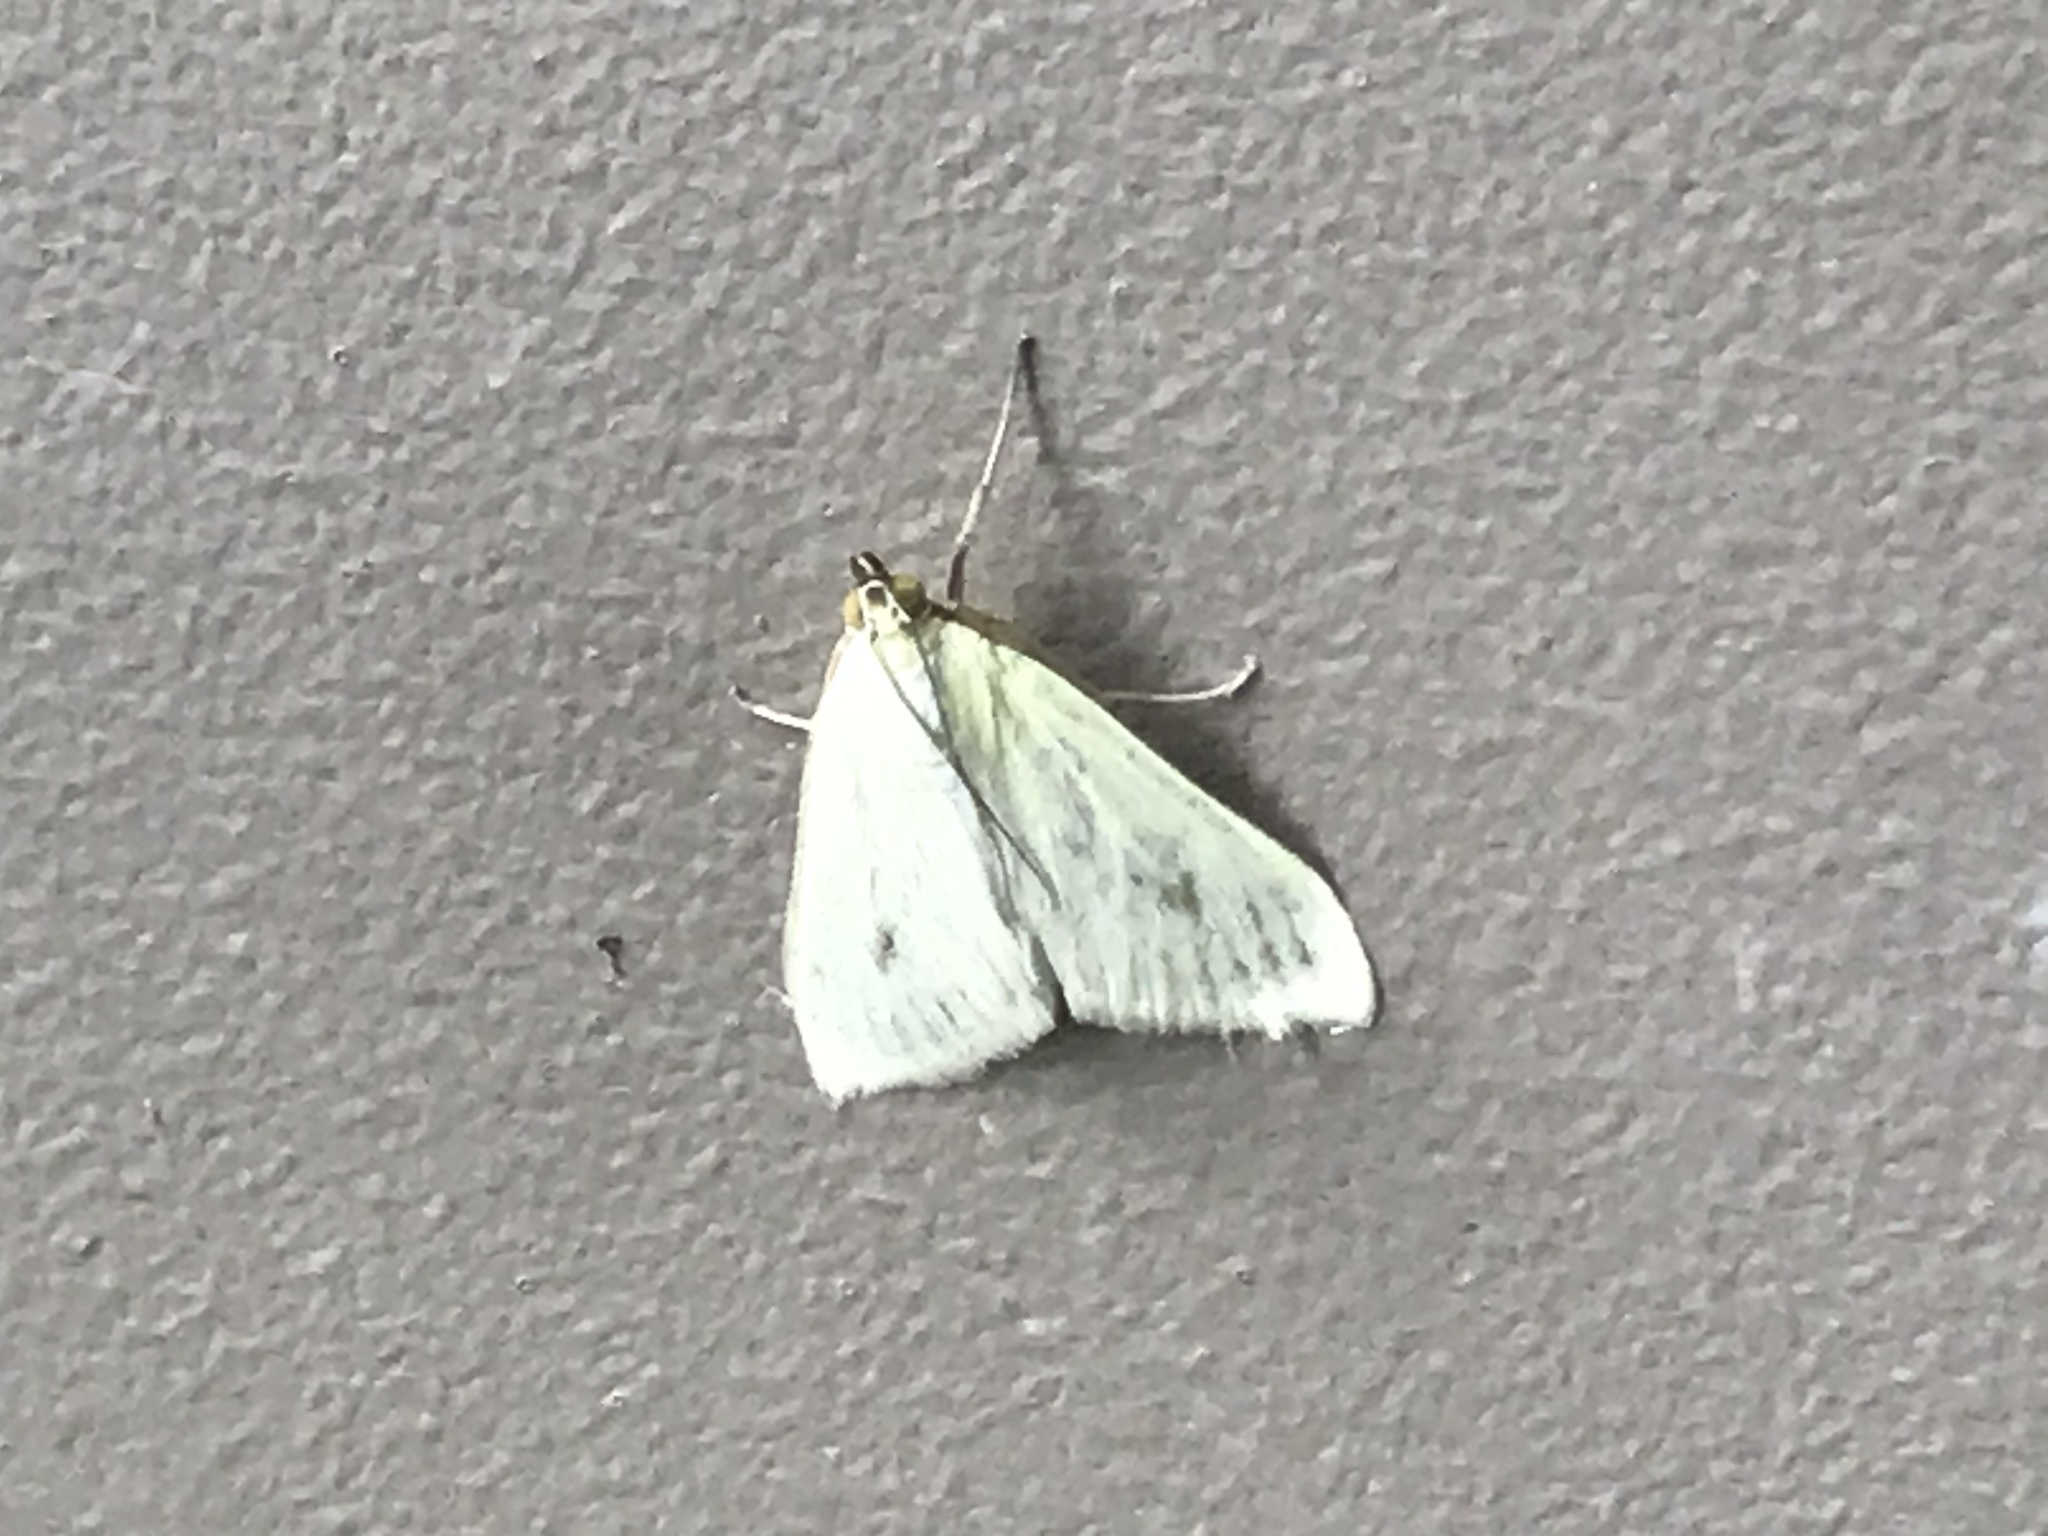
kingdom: Animalia
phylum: Arthropoda
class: Insecta
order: Lepidoptera
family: Crambidae
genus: Sitochroa
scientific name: Sitochroa palealis
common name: Greenish-yellow sitochroa moth
